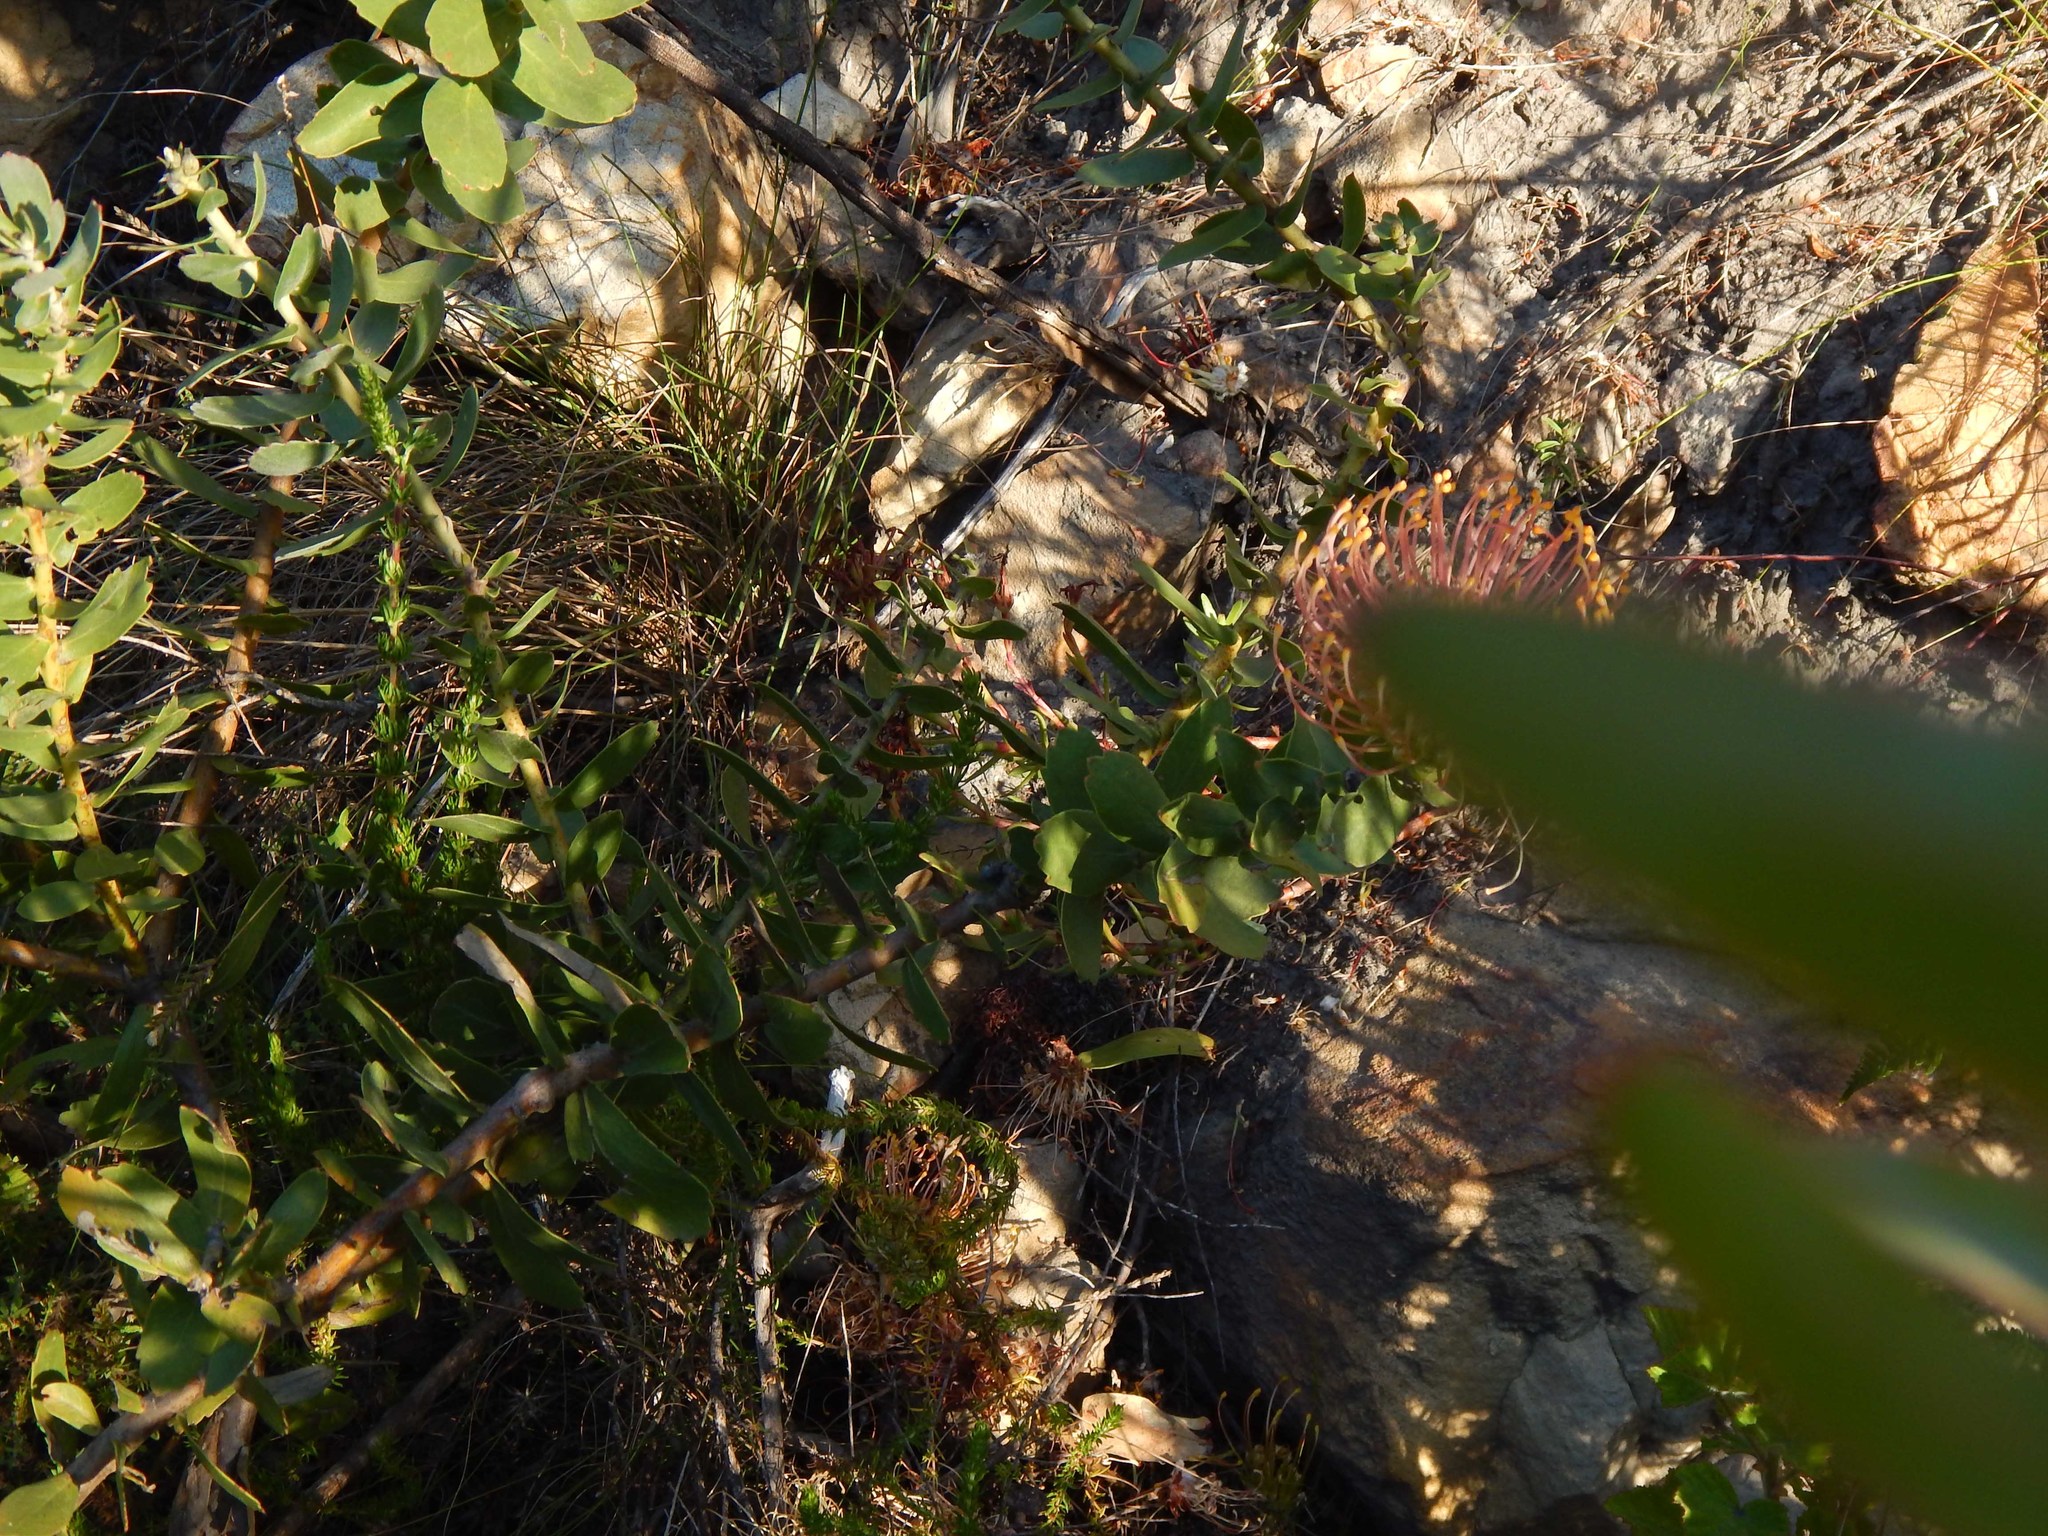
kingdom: Plantae
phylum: Tracheophyta
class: Magnoliopsida
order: Proteales
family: Proteaceae
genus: Leucospermum
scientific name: Leucospermum cordifolium
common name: Red pincushion-protea
